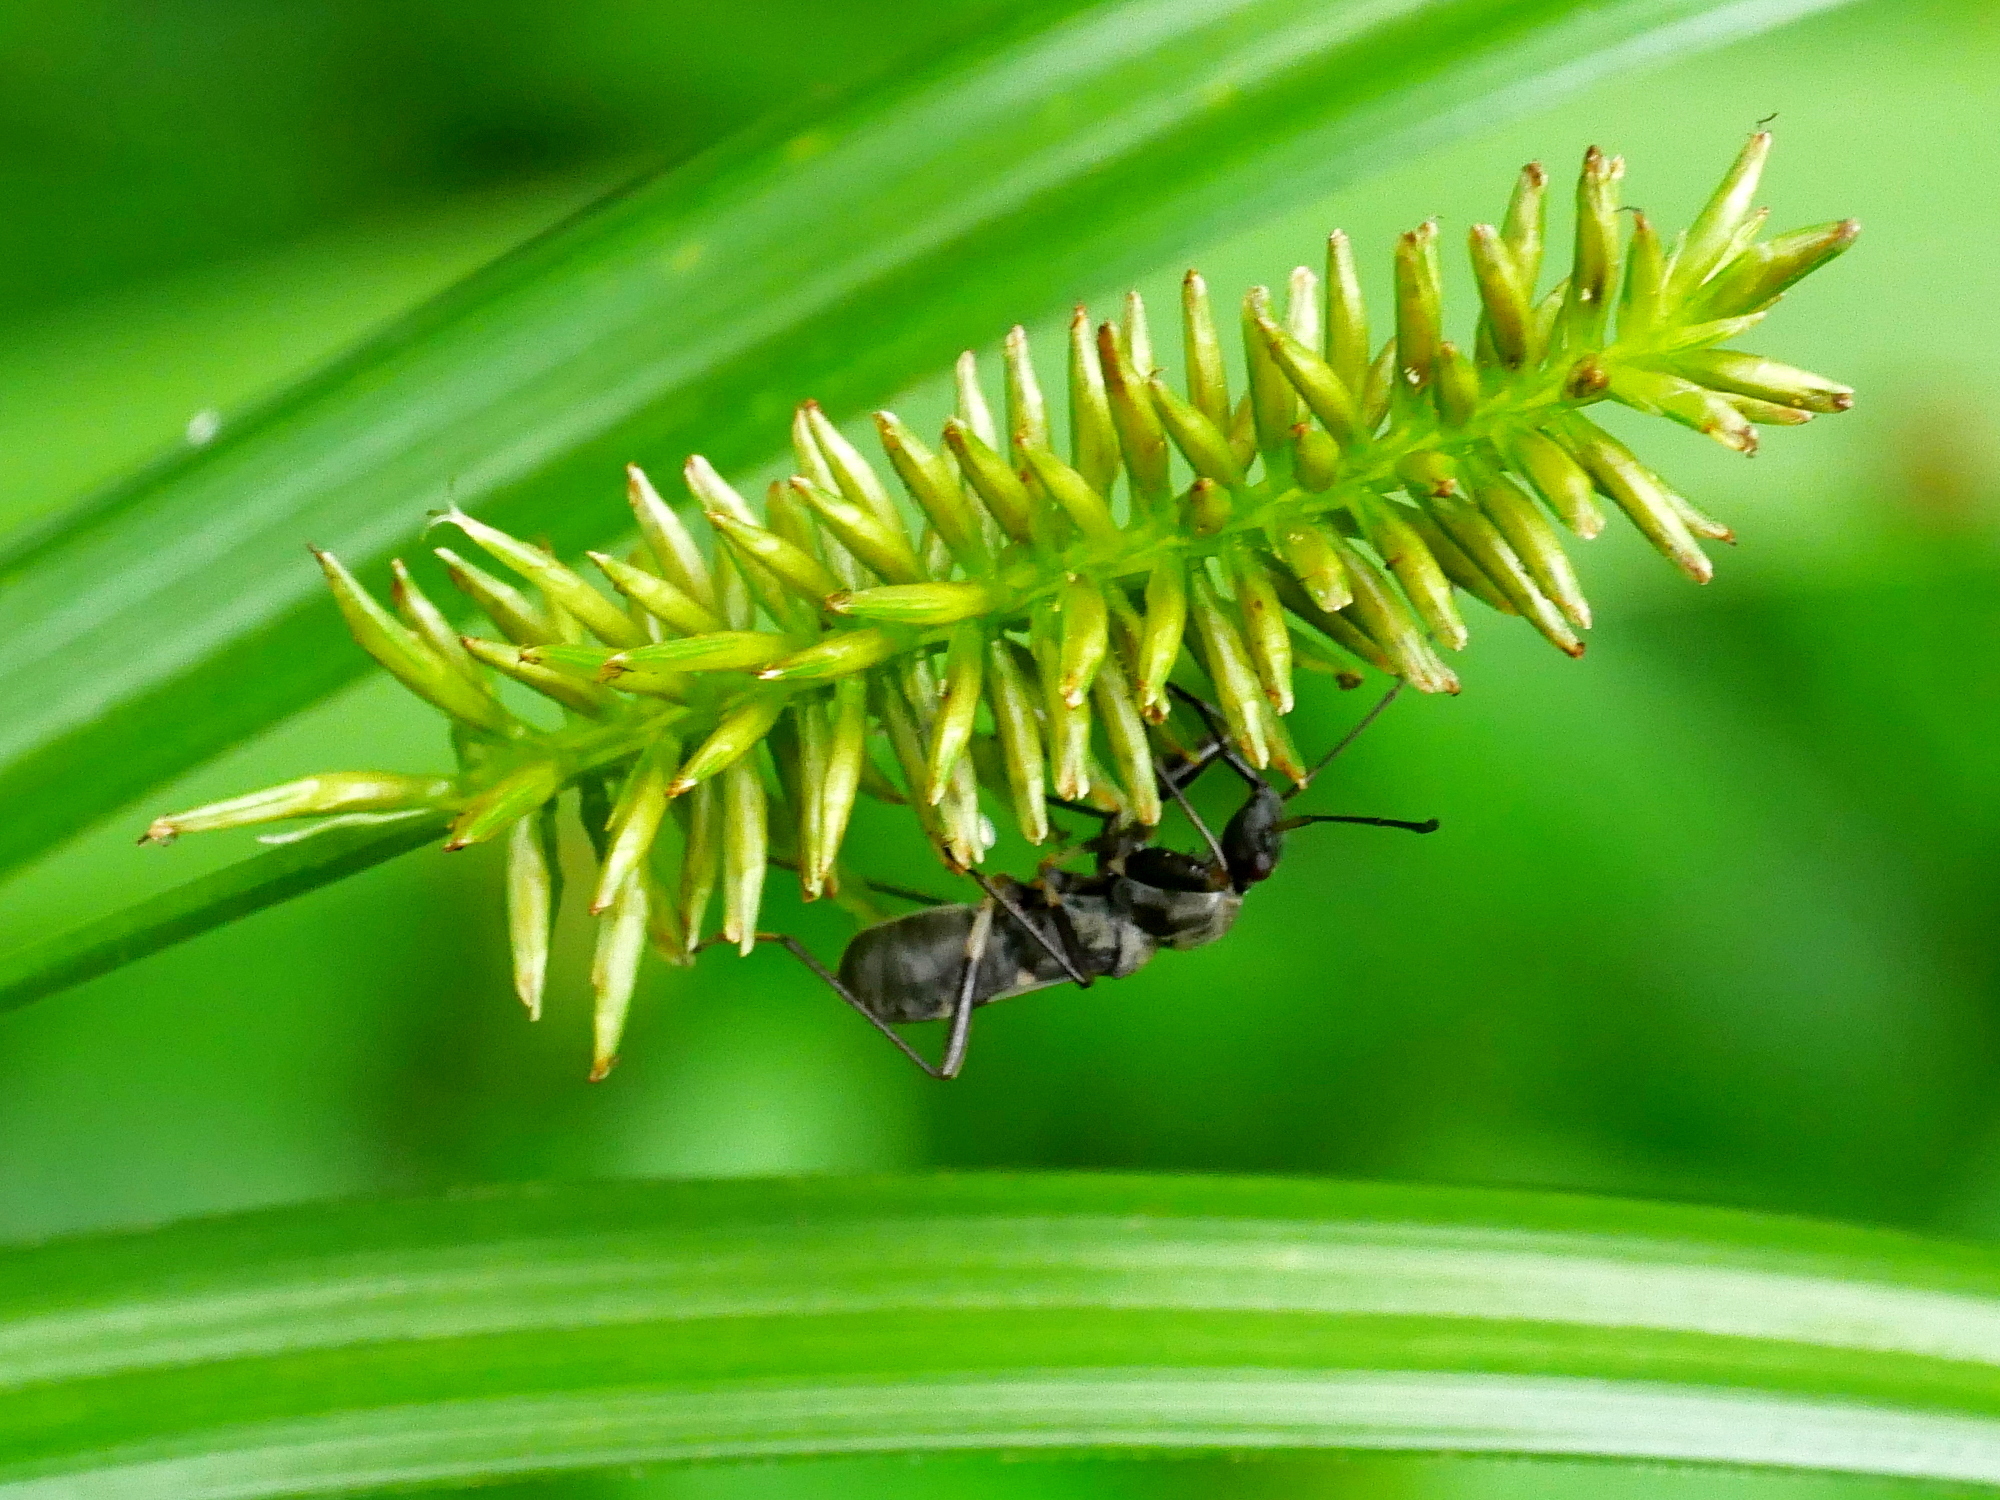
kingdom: Animalia
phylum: Arthropoda
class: Insecta
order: Hemiptera
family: Rhyparochromidae
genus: Eucosmetus
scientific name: Eucosmetus formosus
